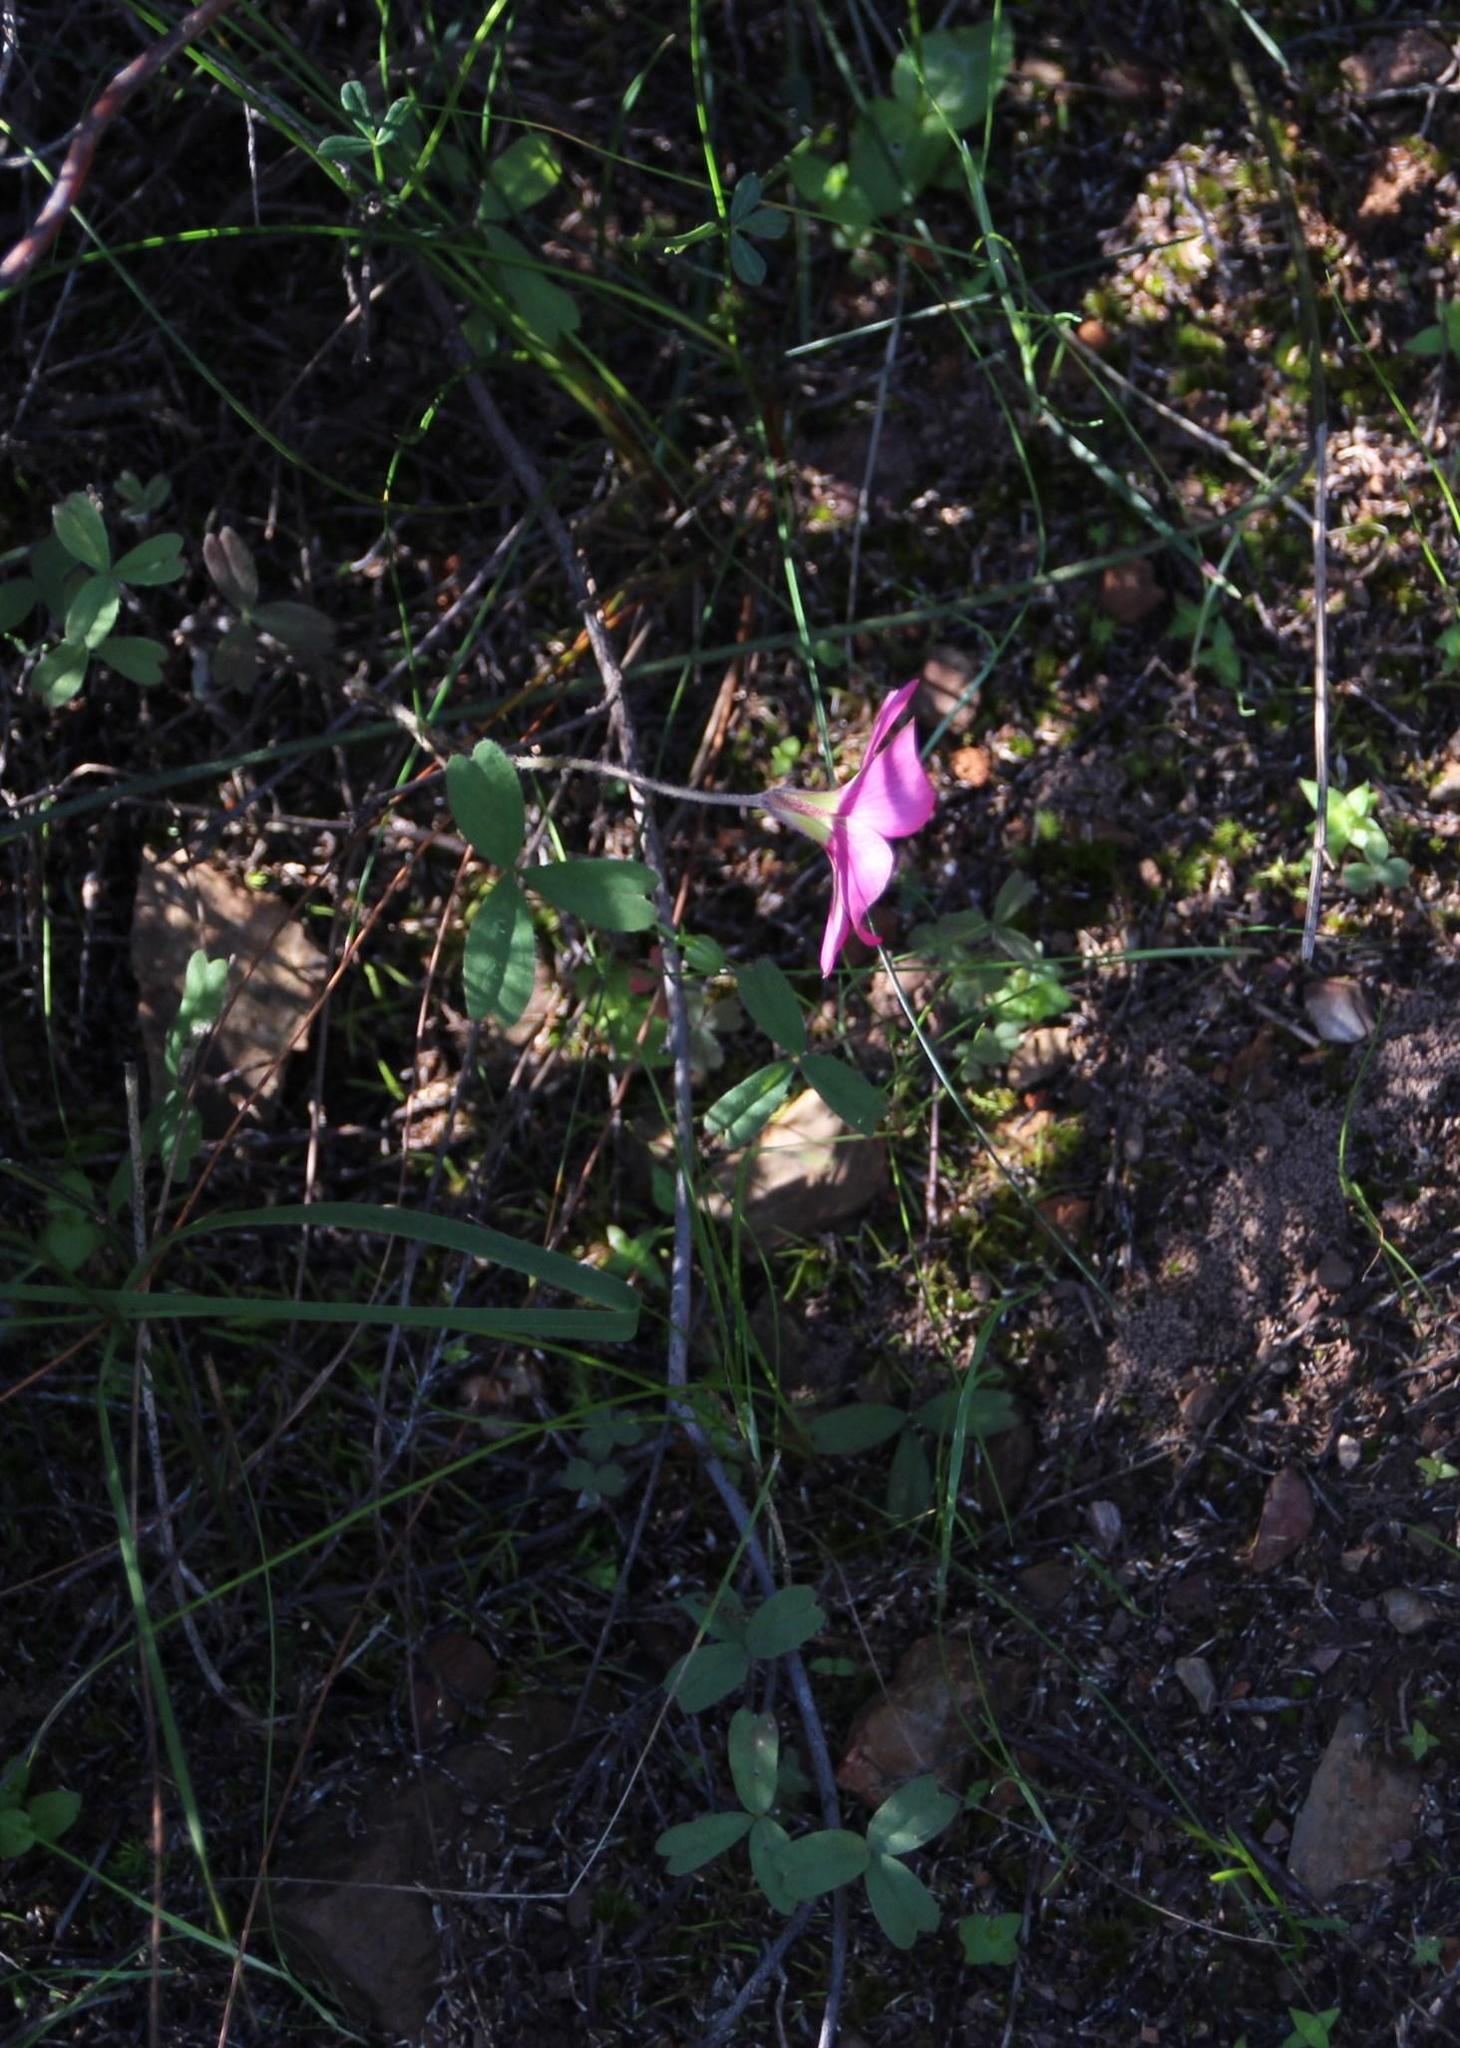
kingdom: Plantae
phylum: Tracheophyta
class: Magnoliopsida
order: Oxalidales
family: Oxalidaceae
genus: Oxalis
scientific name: Oxalis obtusa
